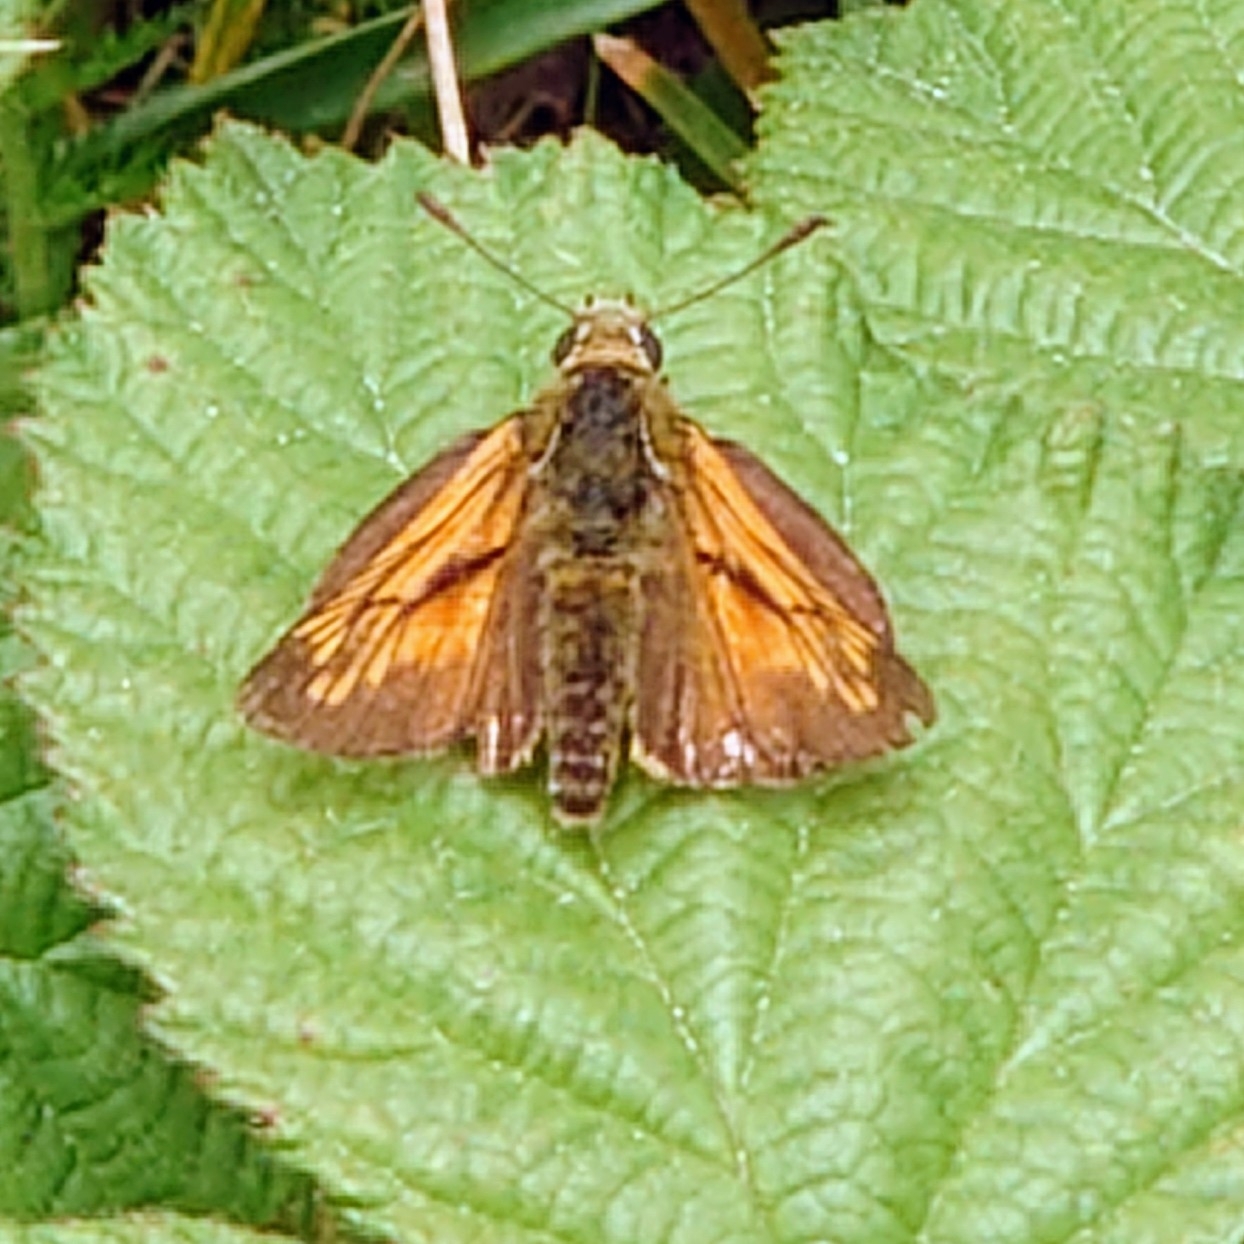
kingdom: Animalia
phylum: Arthropoda
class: Insecta
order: Lepidoptera
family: Hesperiidae
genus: Ochlodes
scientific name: Ochlodes venata
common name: Large skipper
